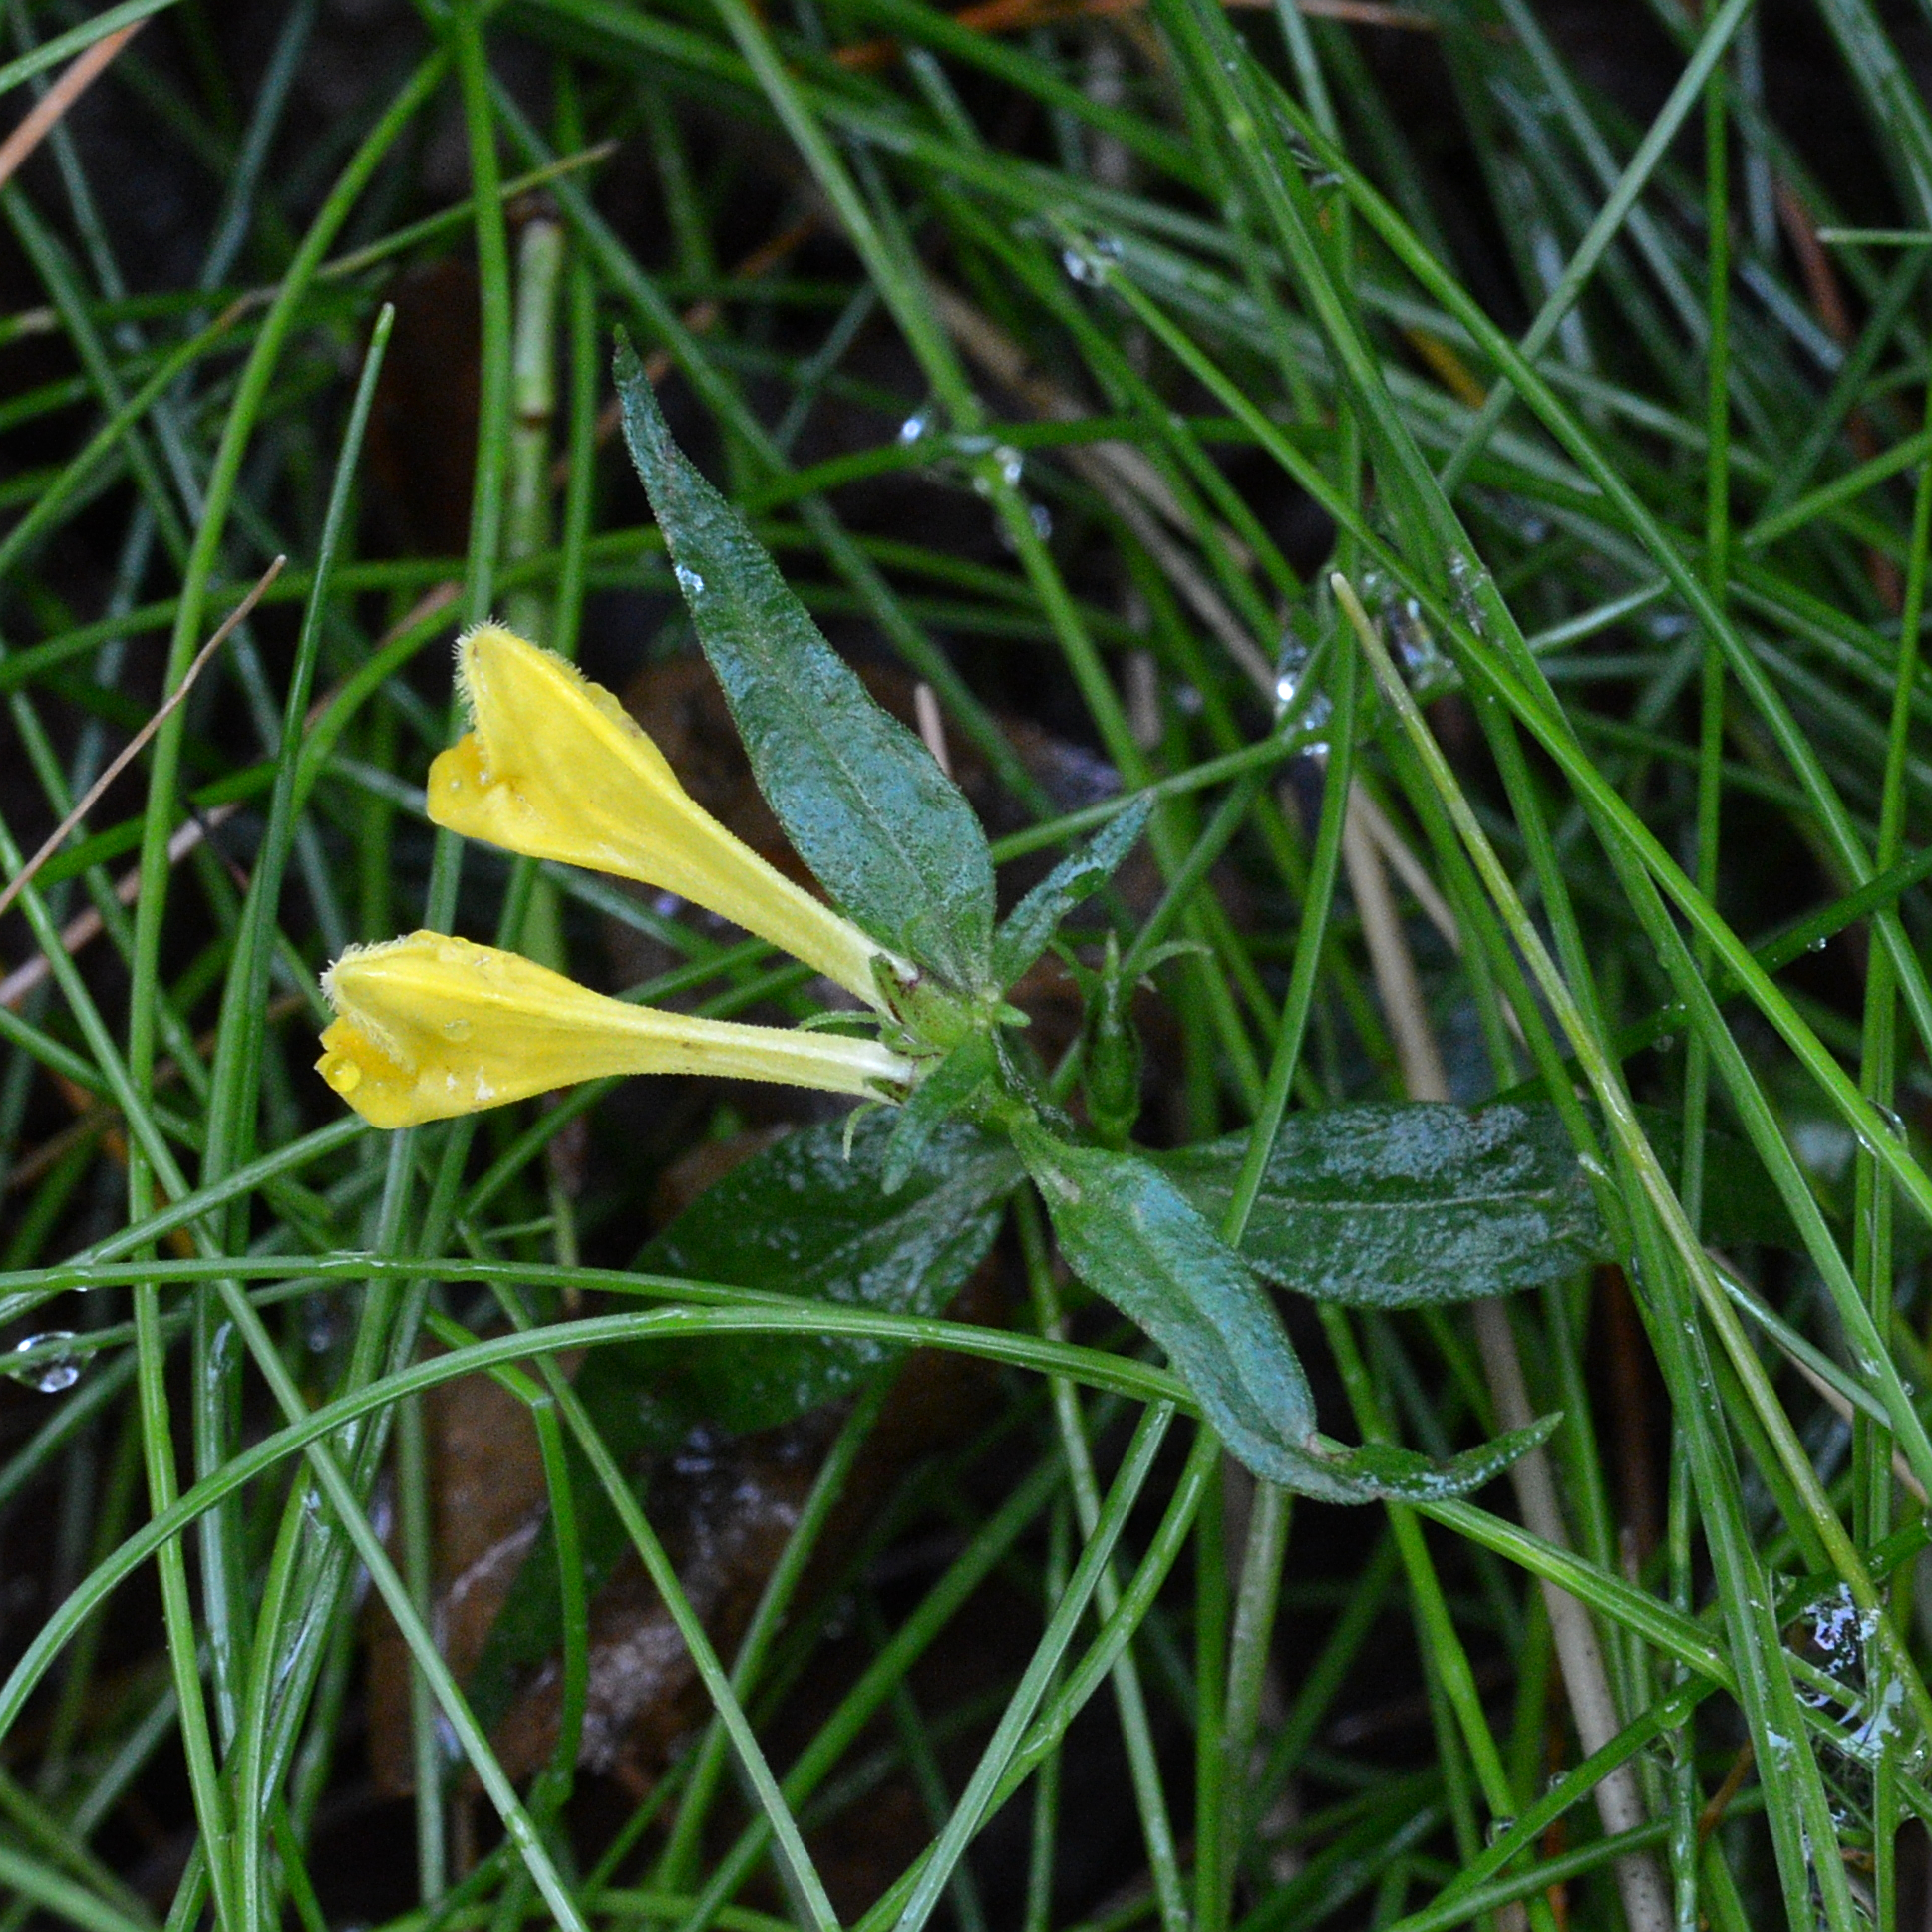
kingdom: Plantae
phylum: Tracheophyta
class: Magnoliopsida
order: Lamiales
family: Orobanchaceae
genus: Melampyrum
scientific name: Melampyrum pratense
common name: Common cow-wheat
